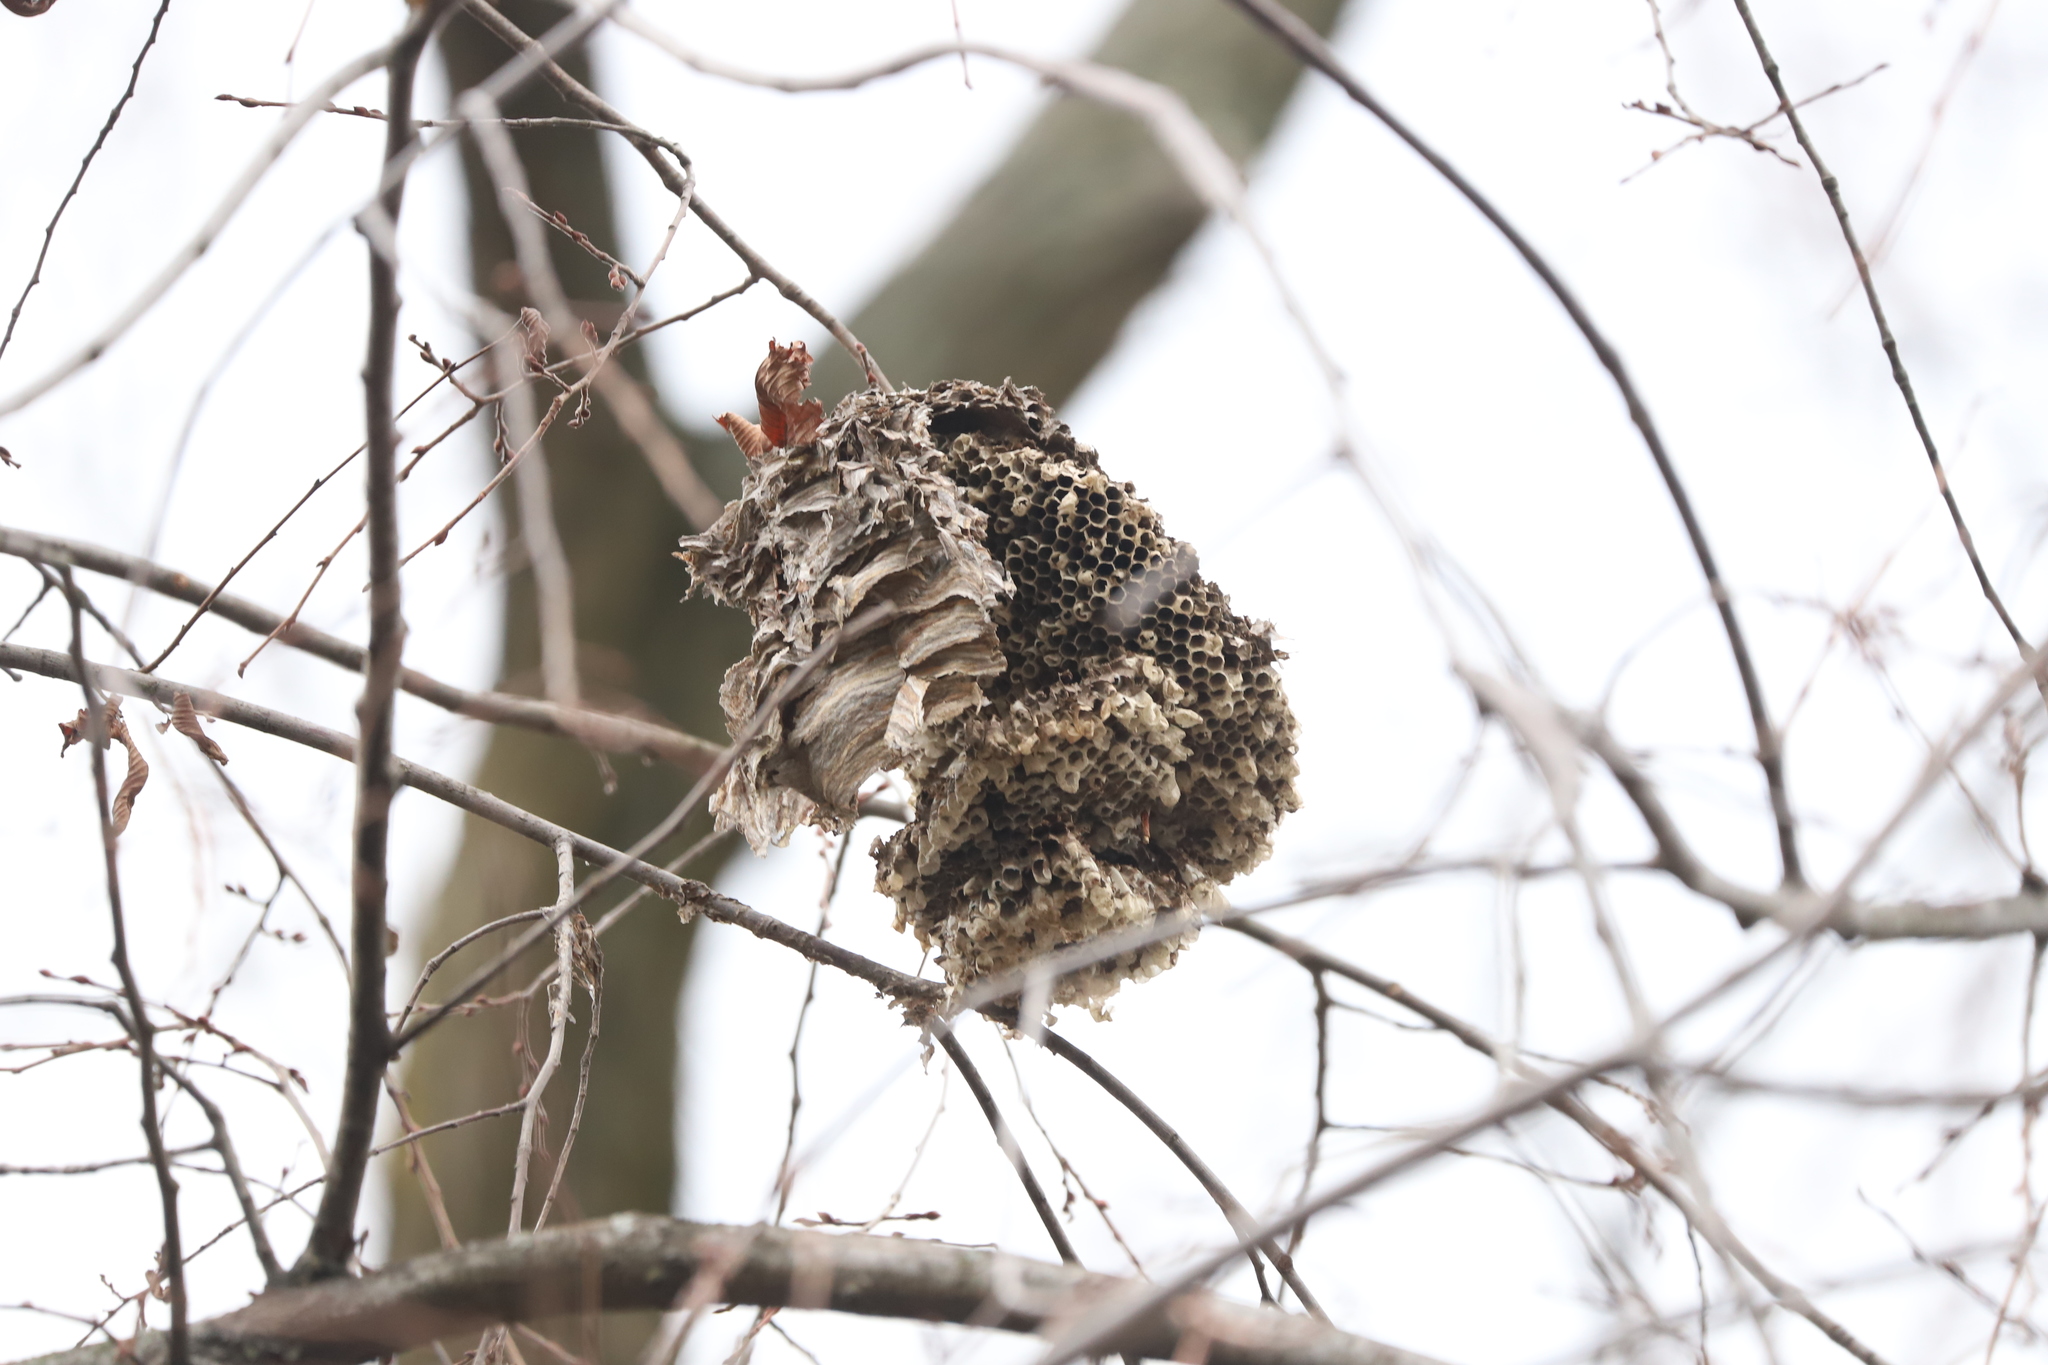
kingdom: Animalia
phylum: Arthropoda
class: Insecta
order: Hymenoptera
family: Vespidae
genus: Dolichovespula
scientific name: Dolichovespula maculata
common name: Bald-faced hornet
